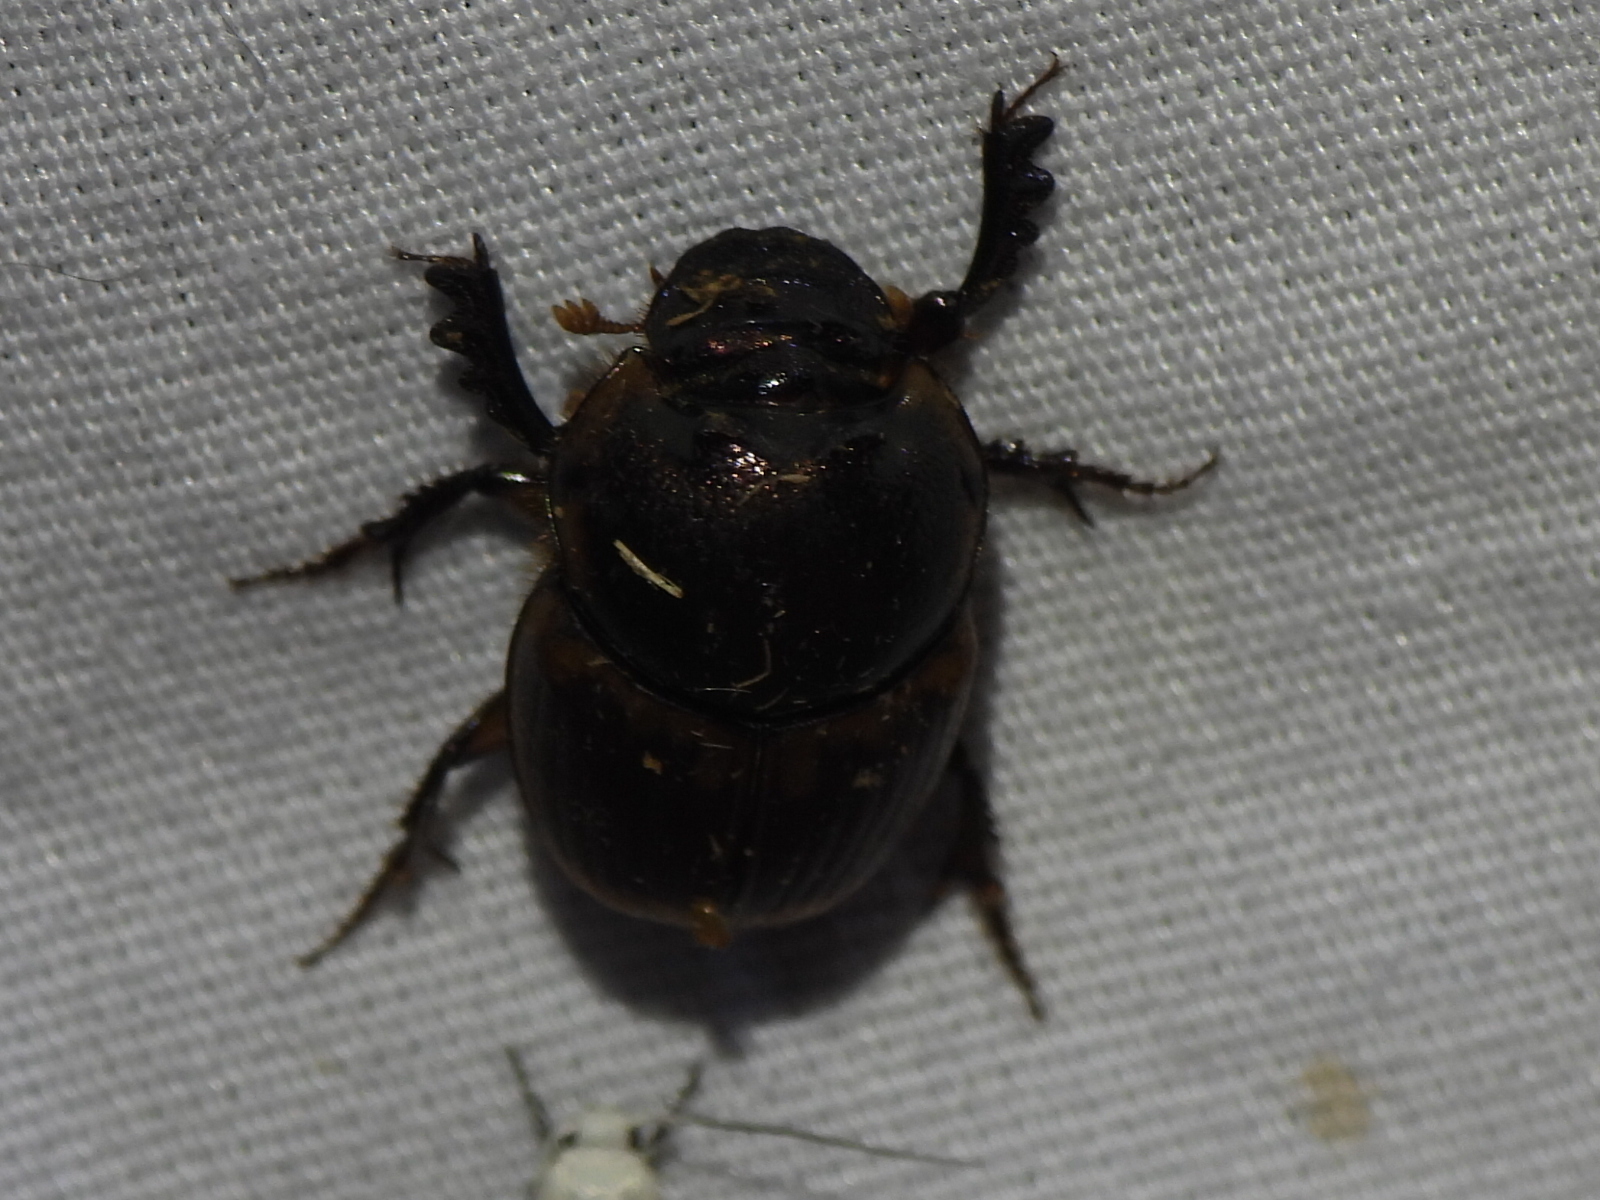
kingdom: Animalia
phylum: Arthropoda
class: Insecta
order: Coleoptera
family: Scarabaeidae
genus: Digitonthophagus
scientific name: Digitonthophagus gazella
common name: Brown dung beetle
